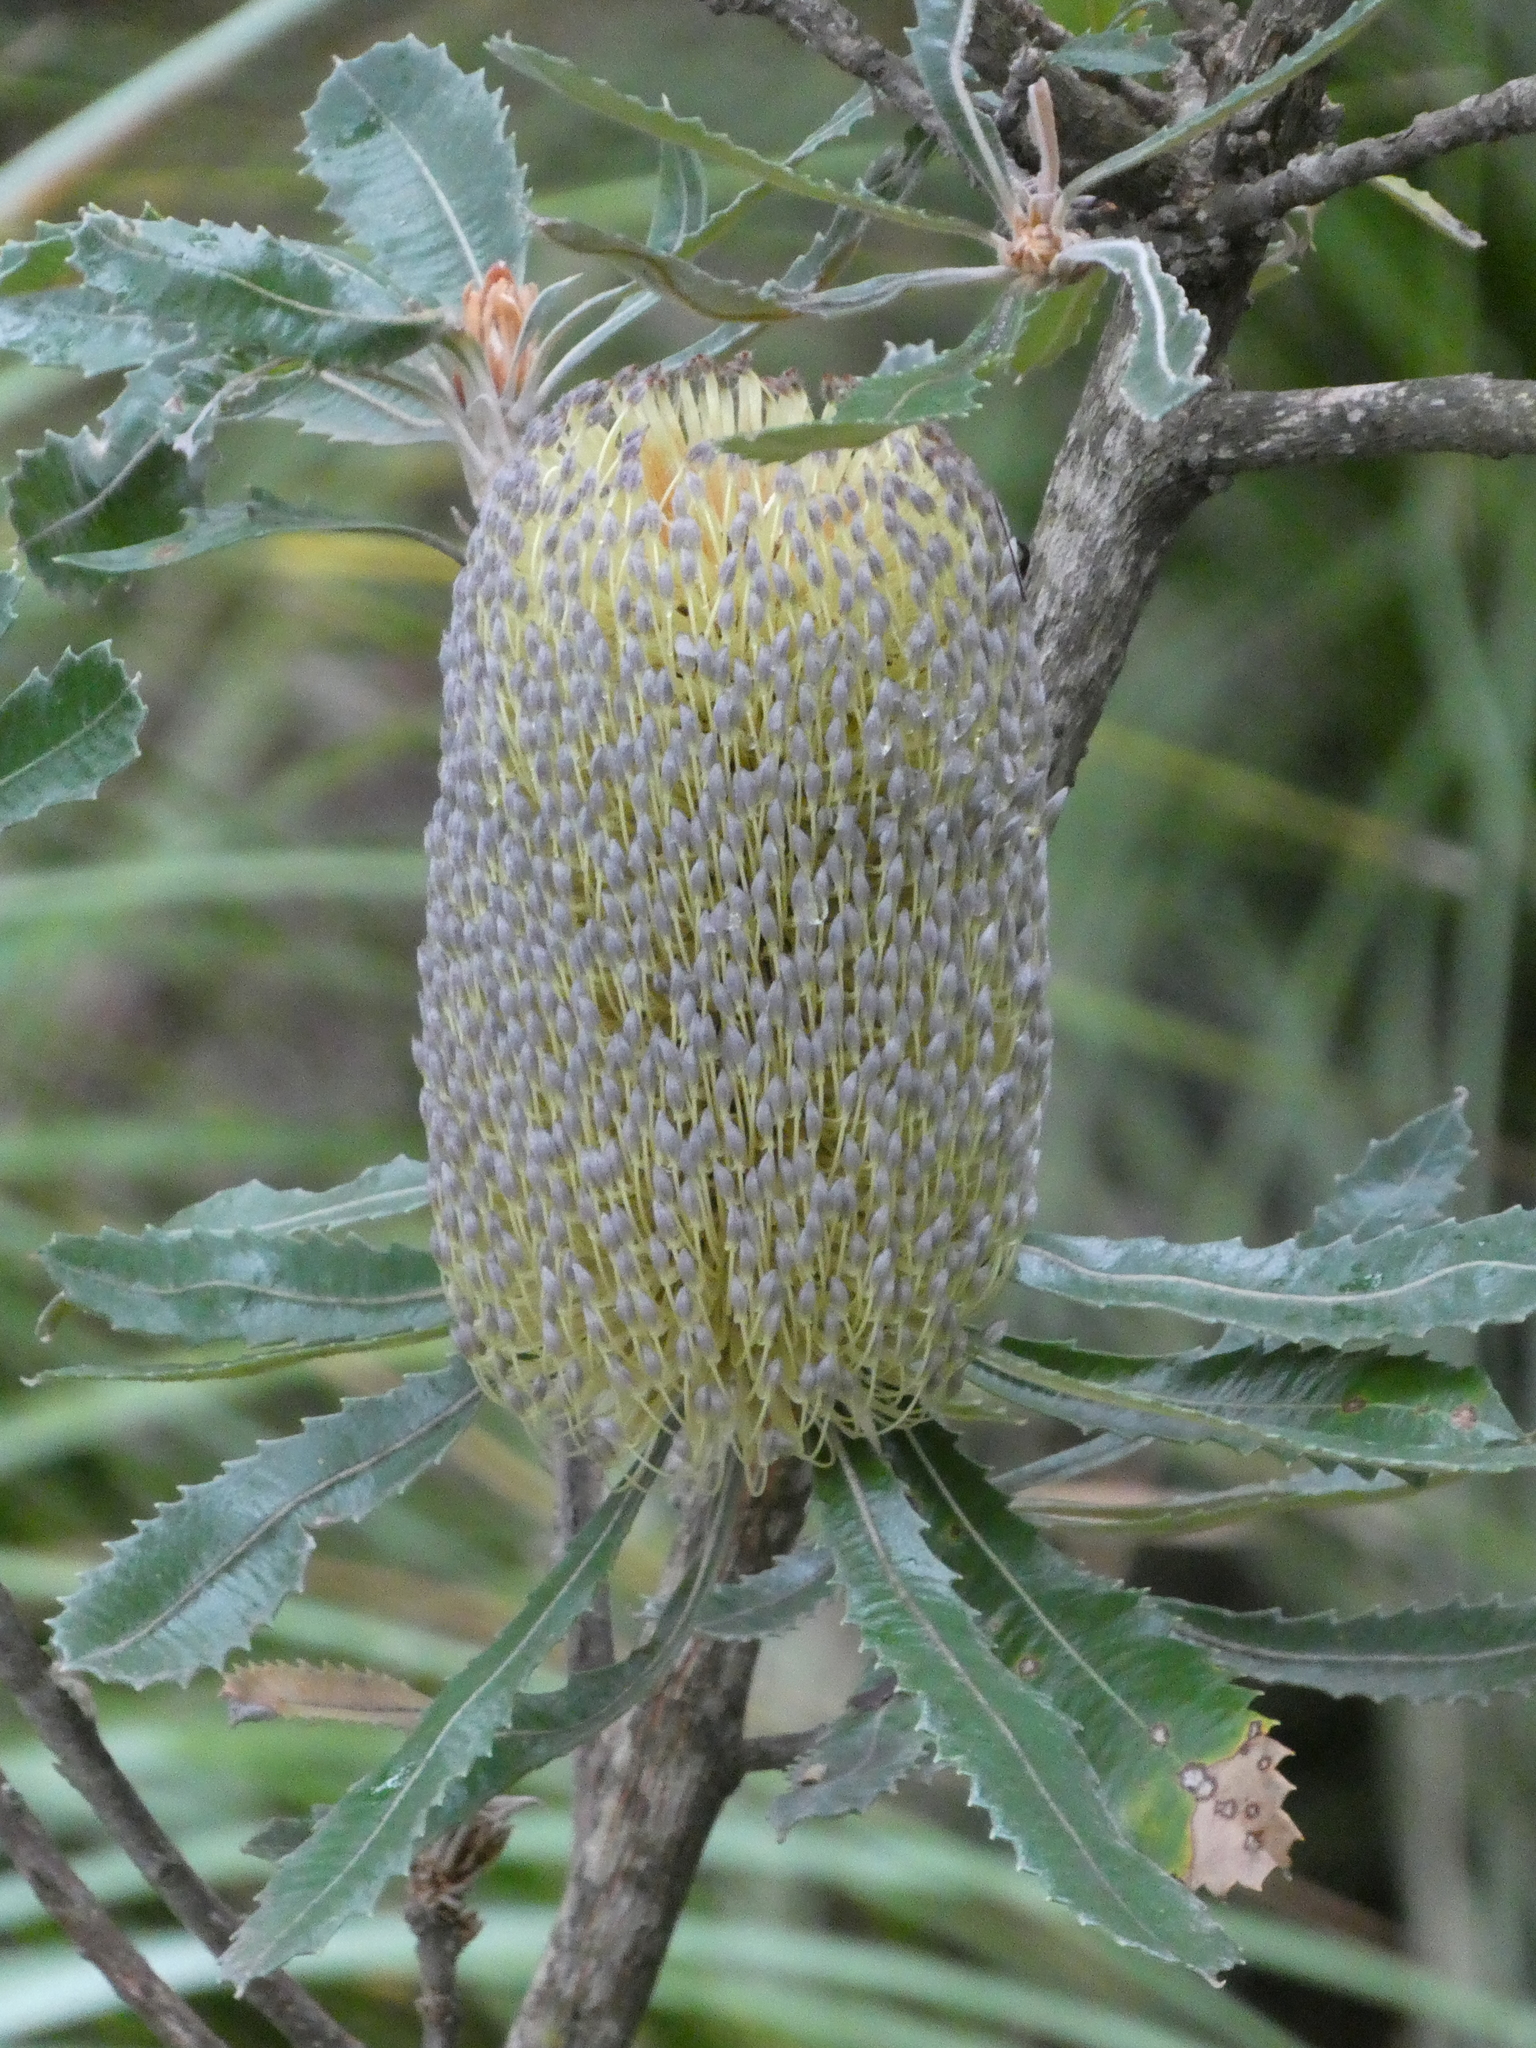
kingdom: Plantae
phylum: Tracheophyta
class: Magnoliopsida
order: Proteales
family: Proteaceae
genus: Banksia
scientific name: Banksia serrata
